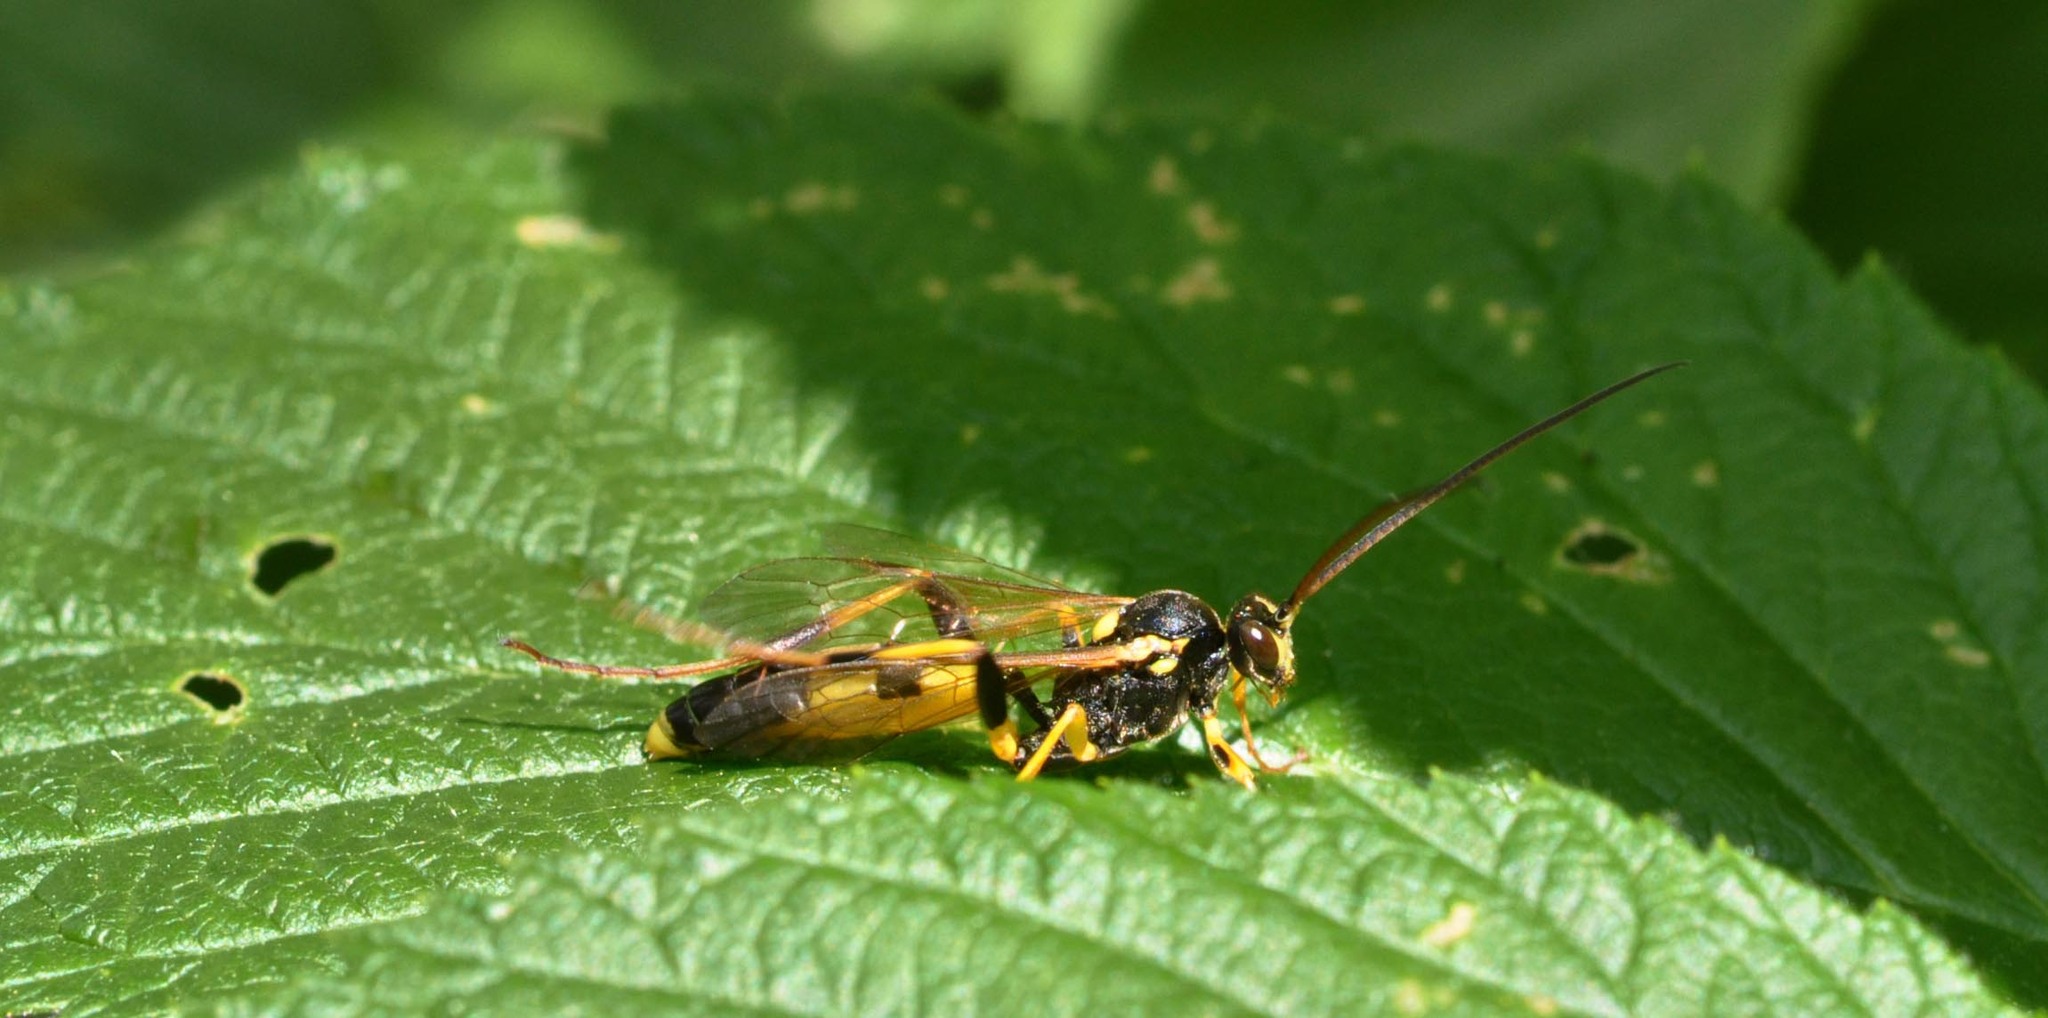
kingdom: Animalia
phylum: Arthropoda
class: Insecta
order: Hymenoptera
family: Ichneumonidae
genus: Amblyteles
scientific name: Amblyteles armatorius
